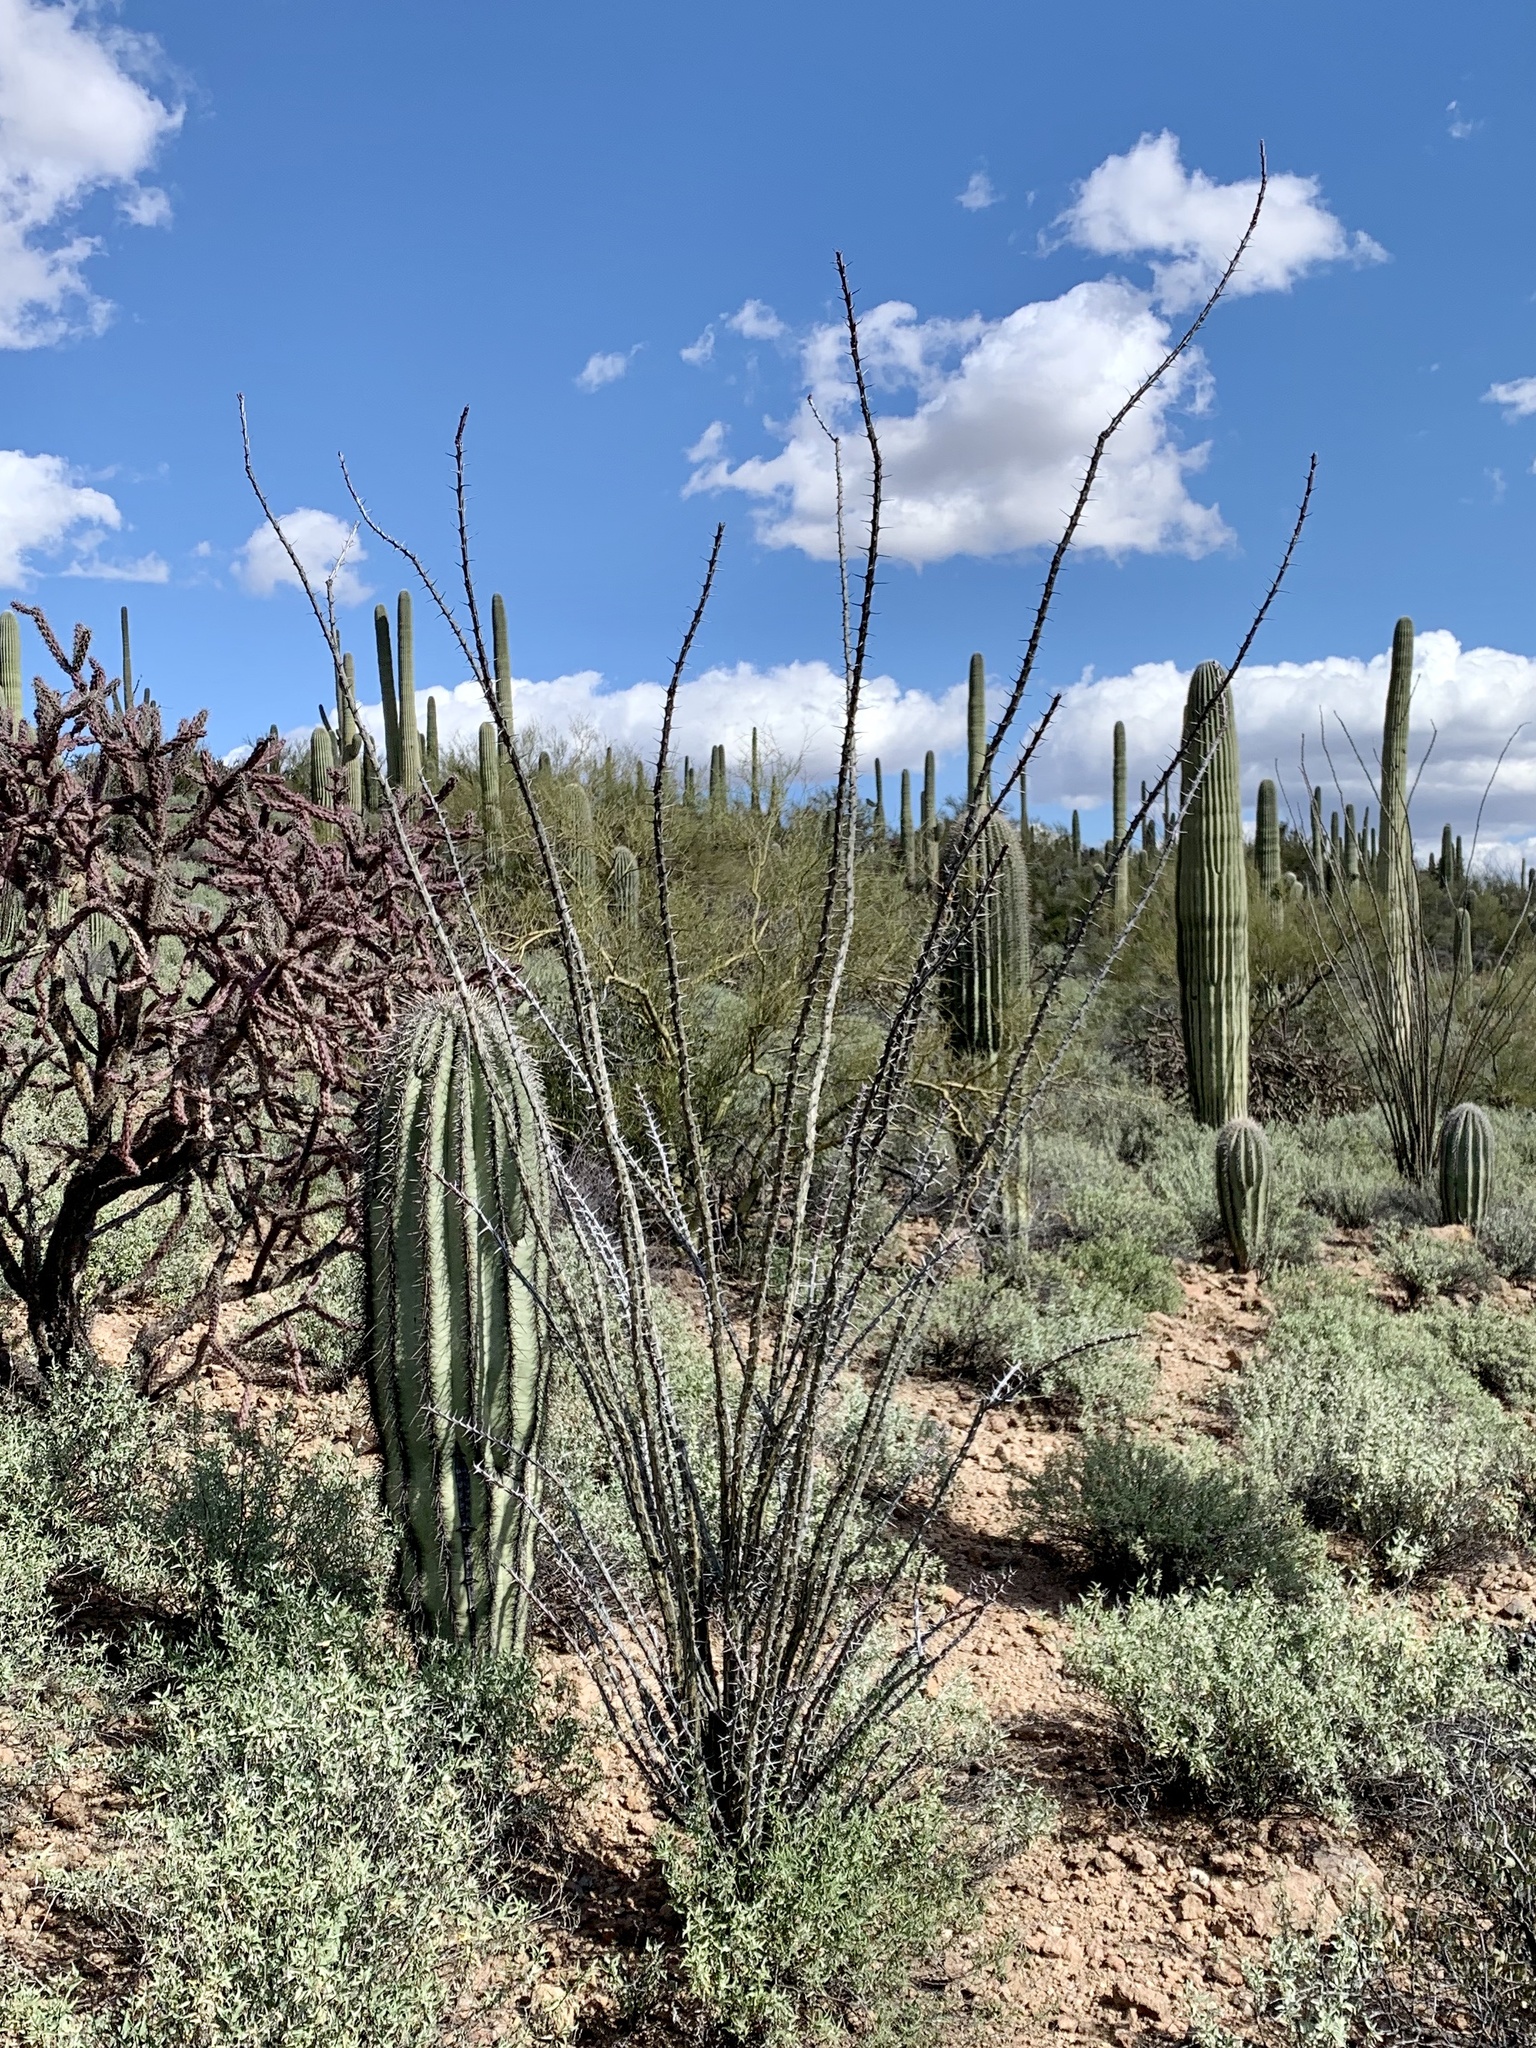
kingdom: Plantae
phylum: Tracheophyta
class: Magnoliopsida
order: Ericales
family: Fouquieriaceae
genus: Fouquieria
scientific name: Fouquieria splendens
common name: Vine-cactus
